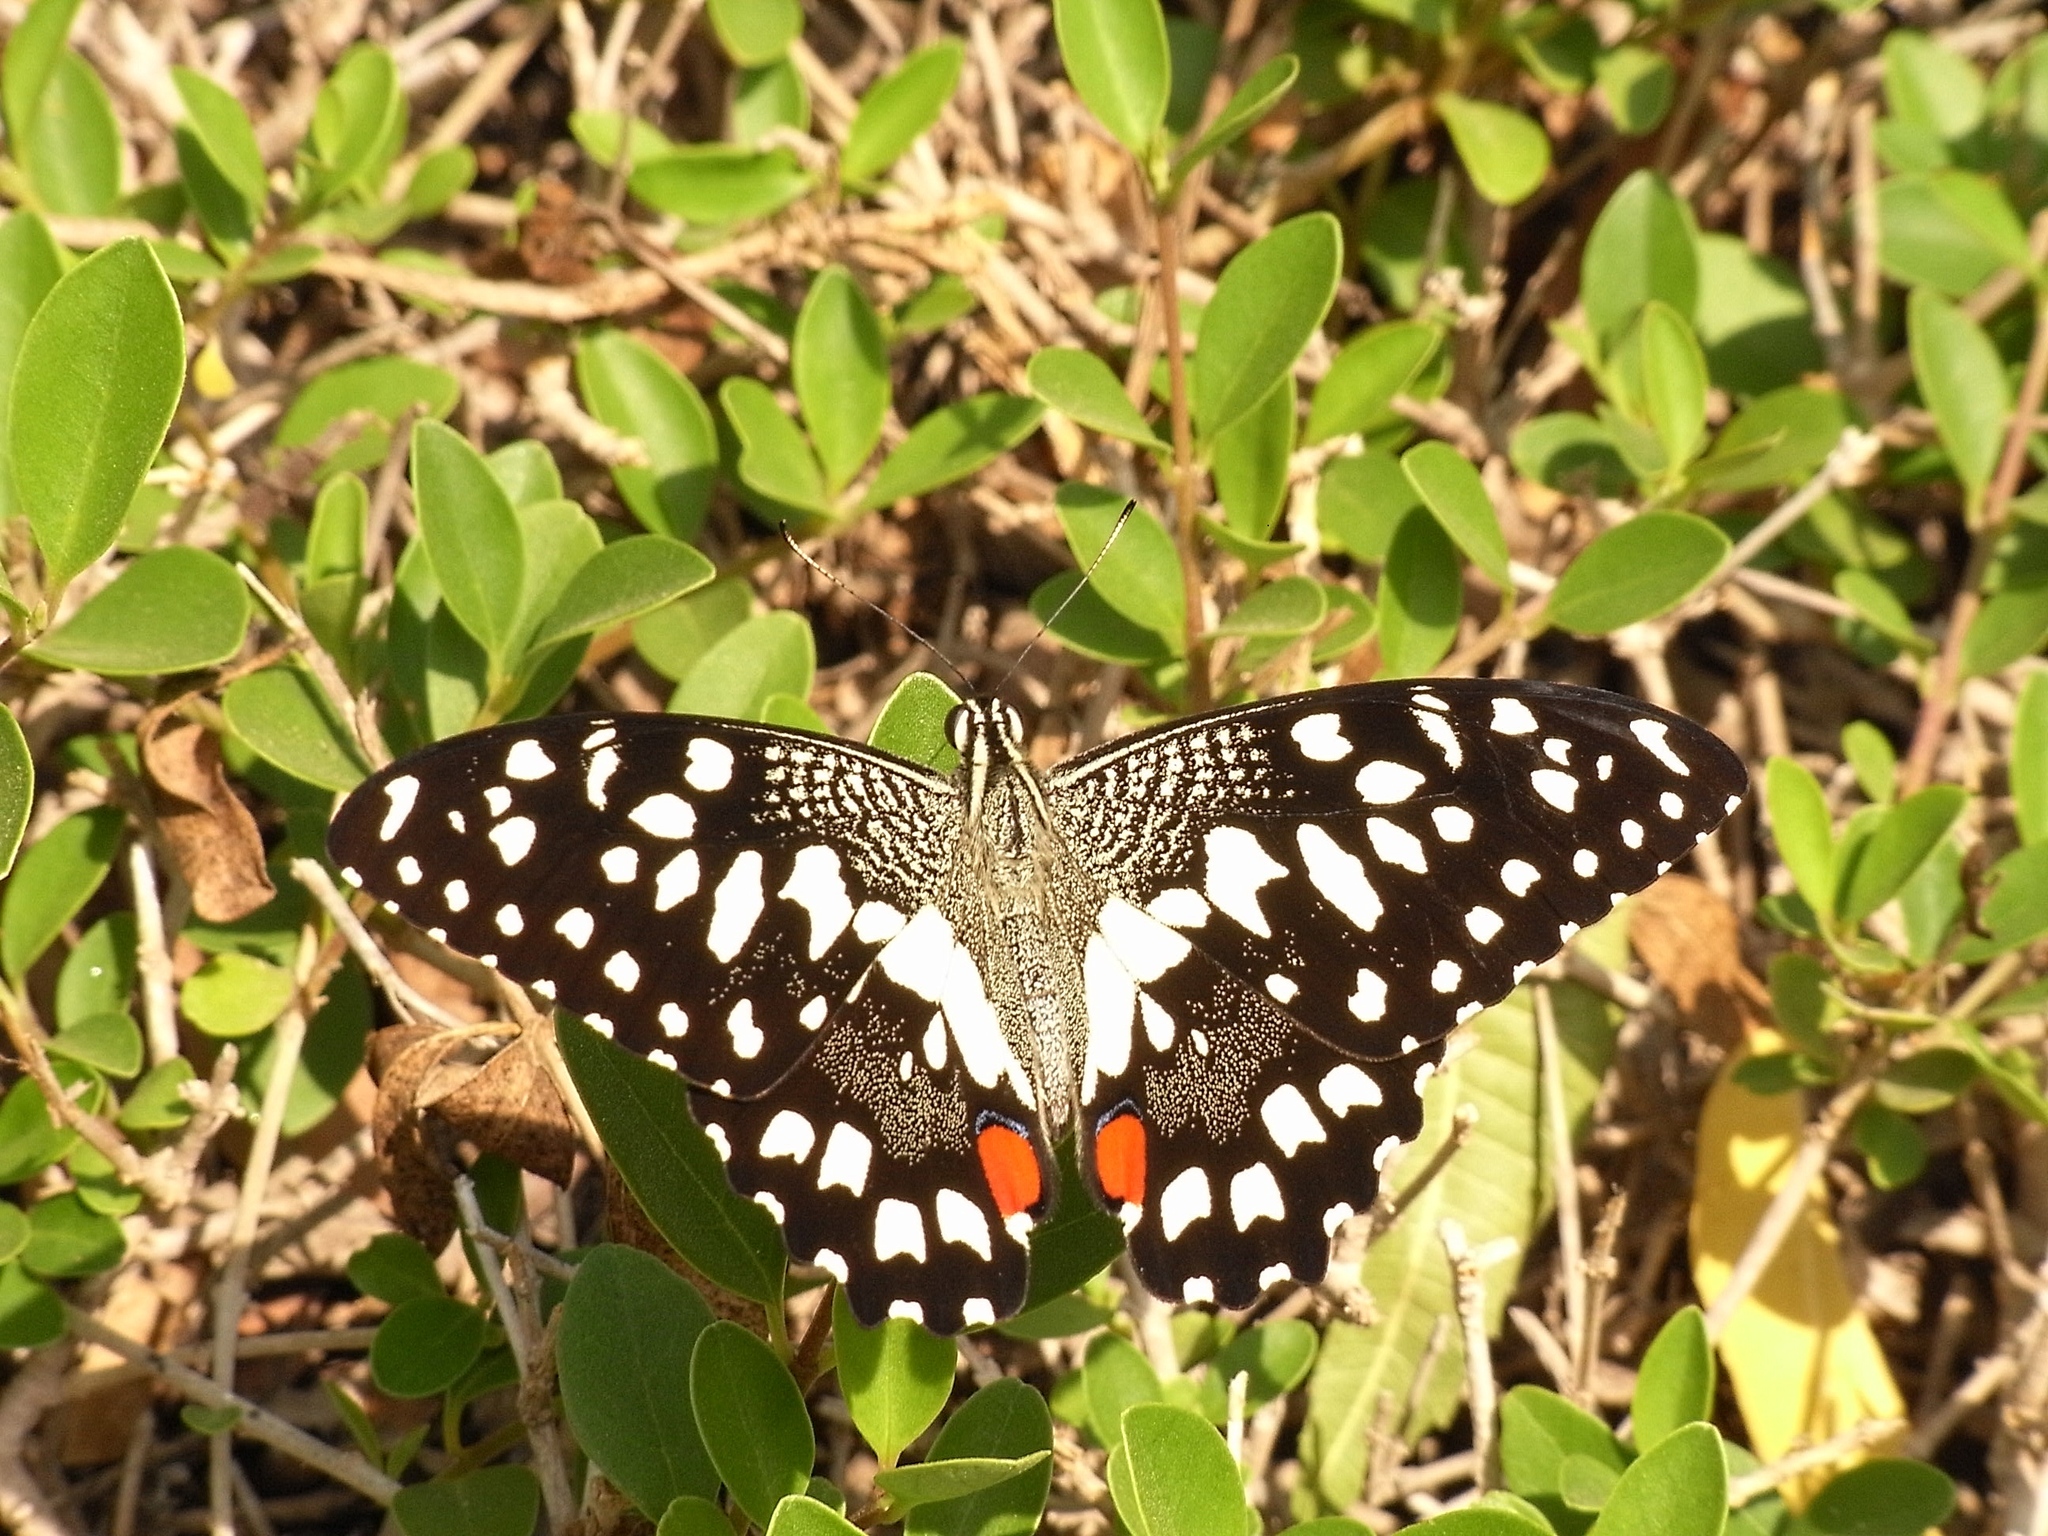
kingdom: Animalia
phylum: Arthropoda
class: Insecta
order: Lepidoptera
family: Papilionidae
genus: Papilio
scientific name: Papilio demoleus
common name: Lime butterfly
